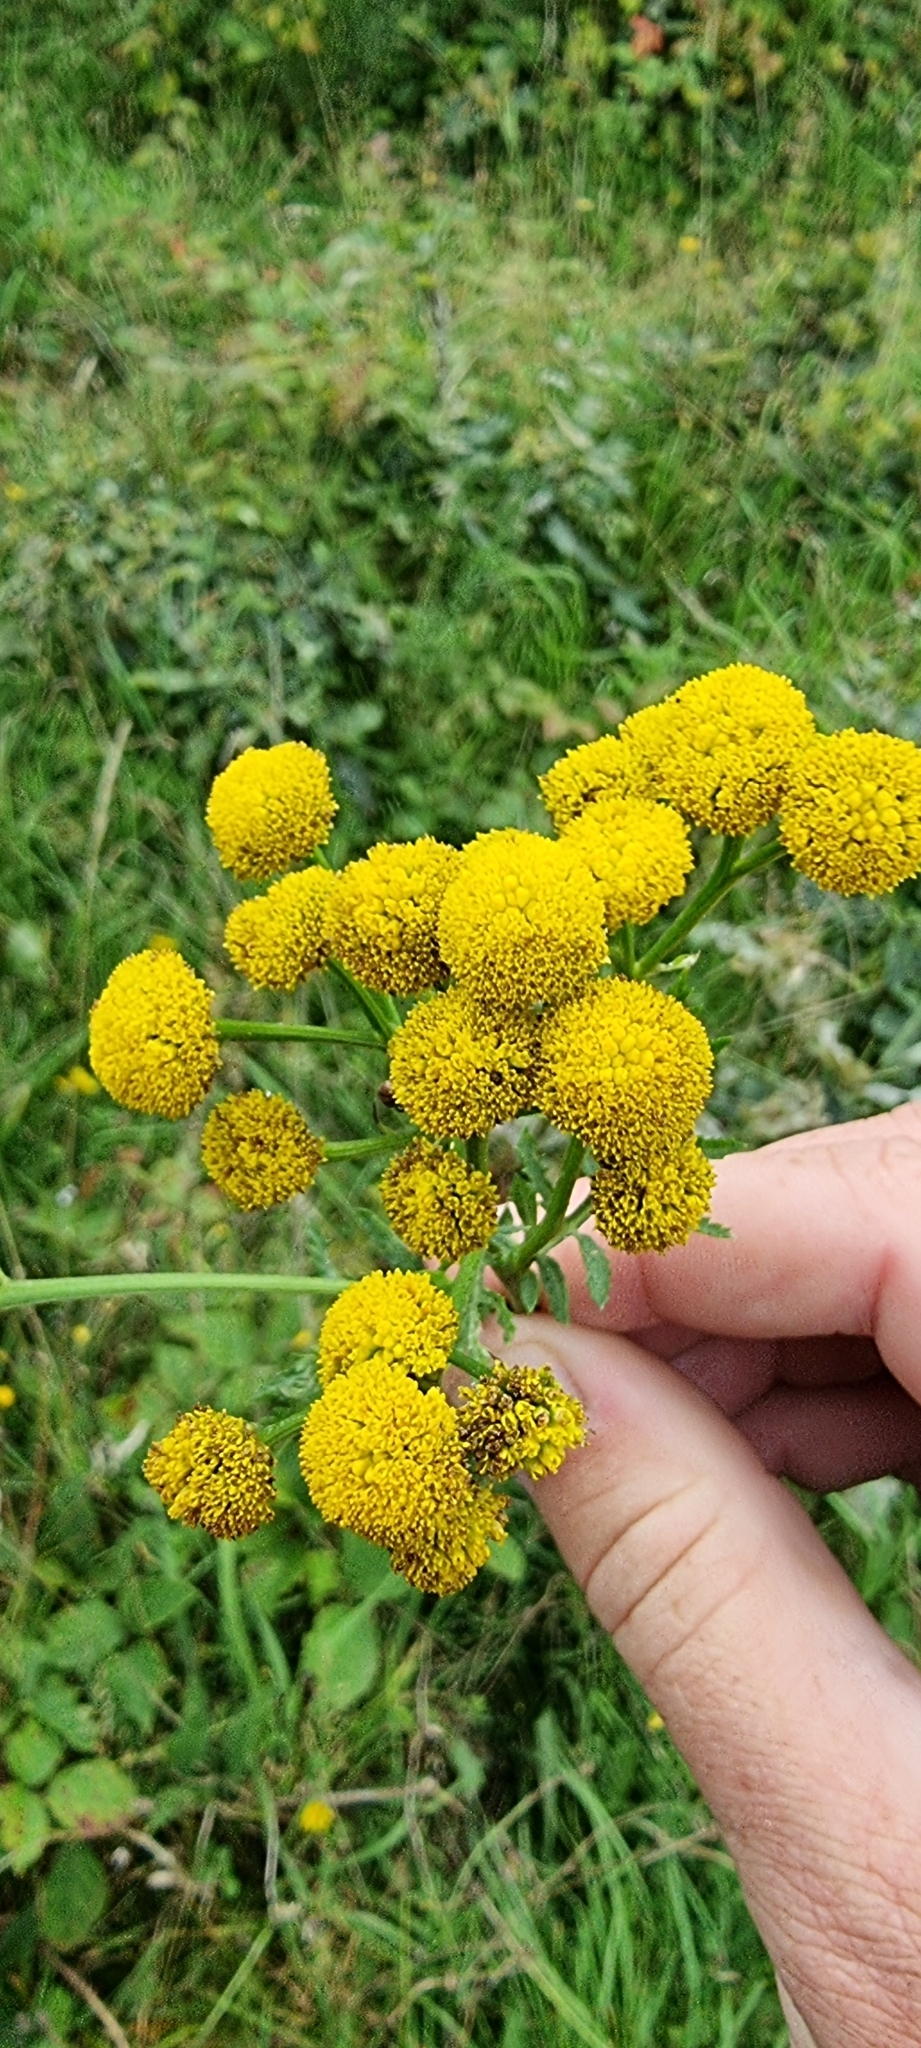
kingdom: Plantae
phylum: Tracheophyta
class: Magnoliopsida
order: Asterales
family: Asteraceae
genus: Tanacetum
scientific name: Tanacetum vulgare
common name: Common tansy
